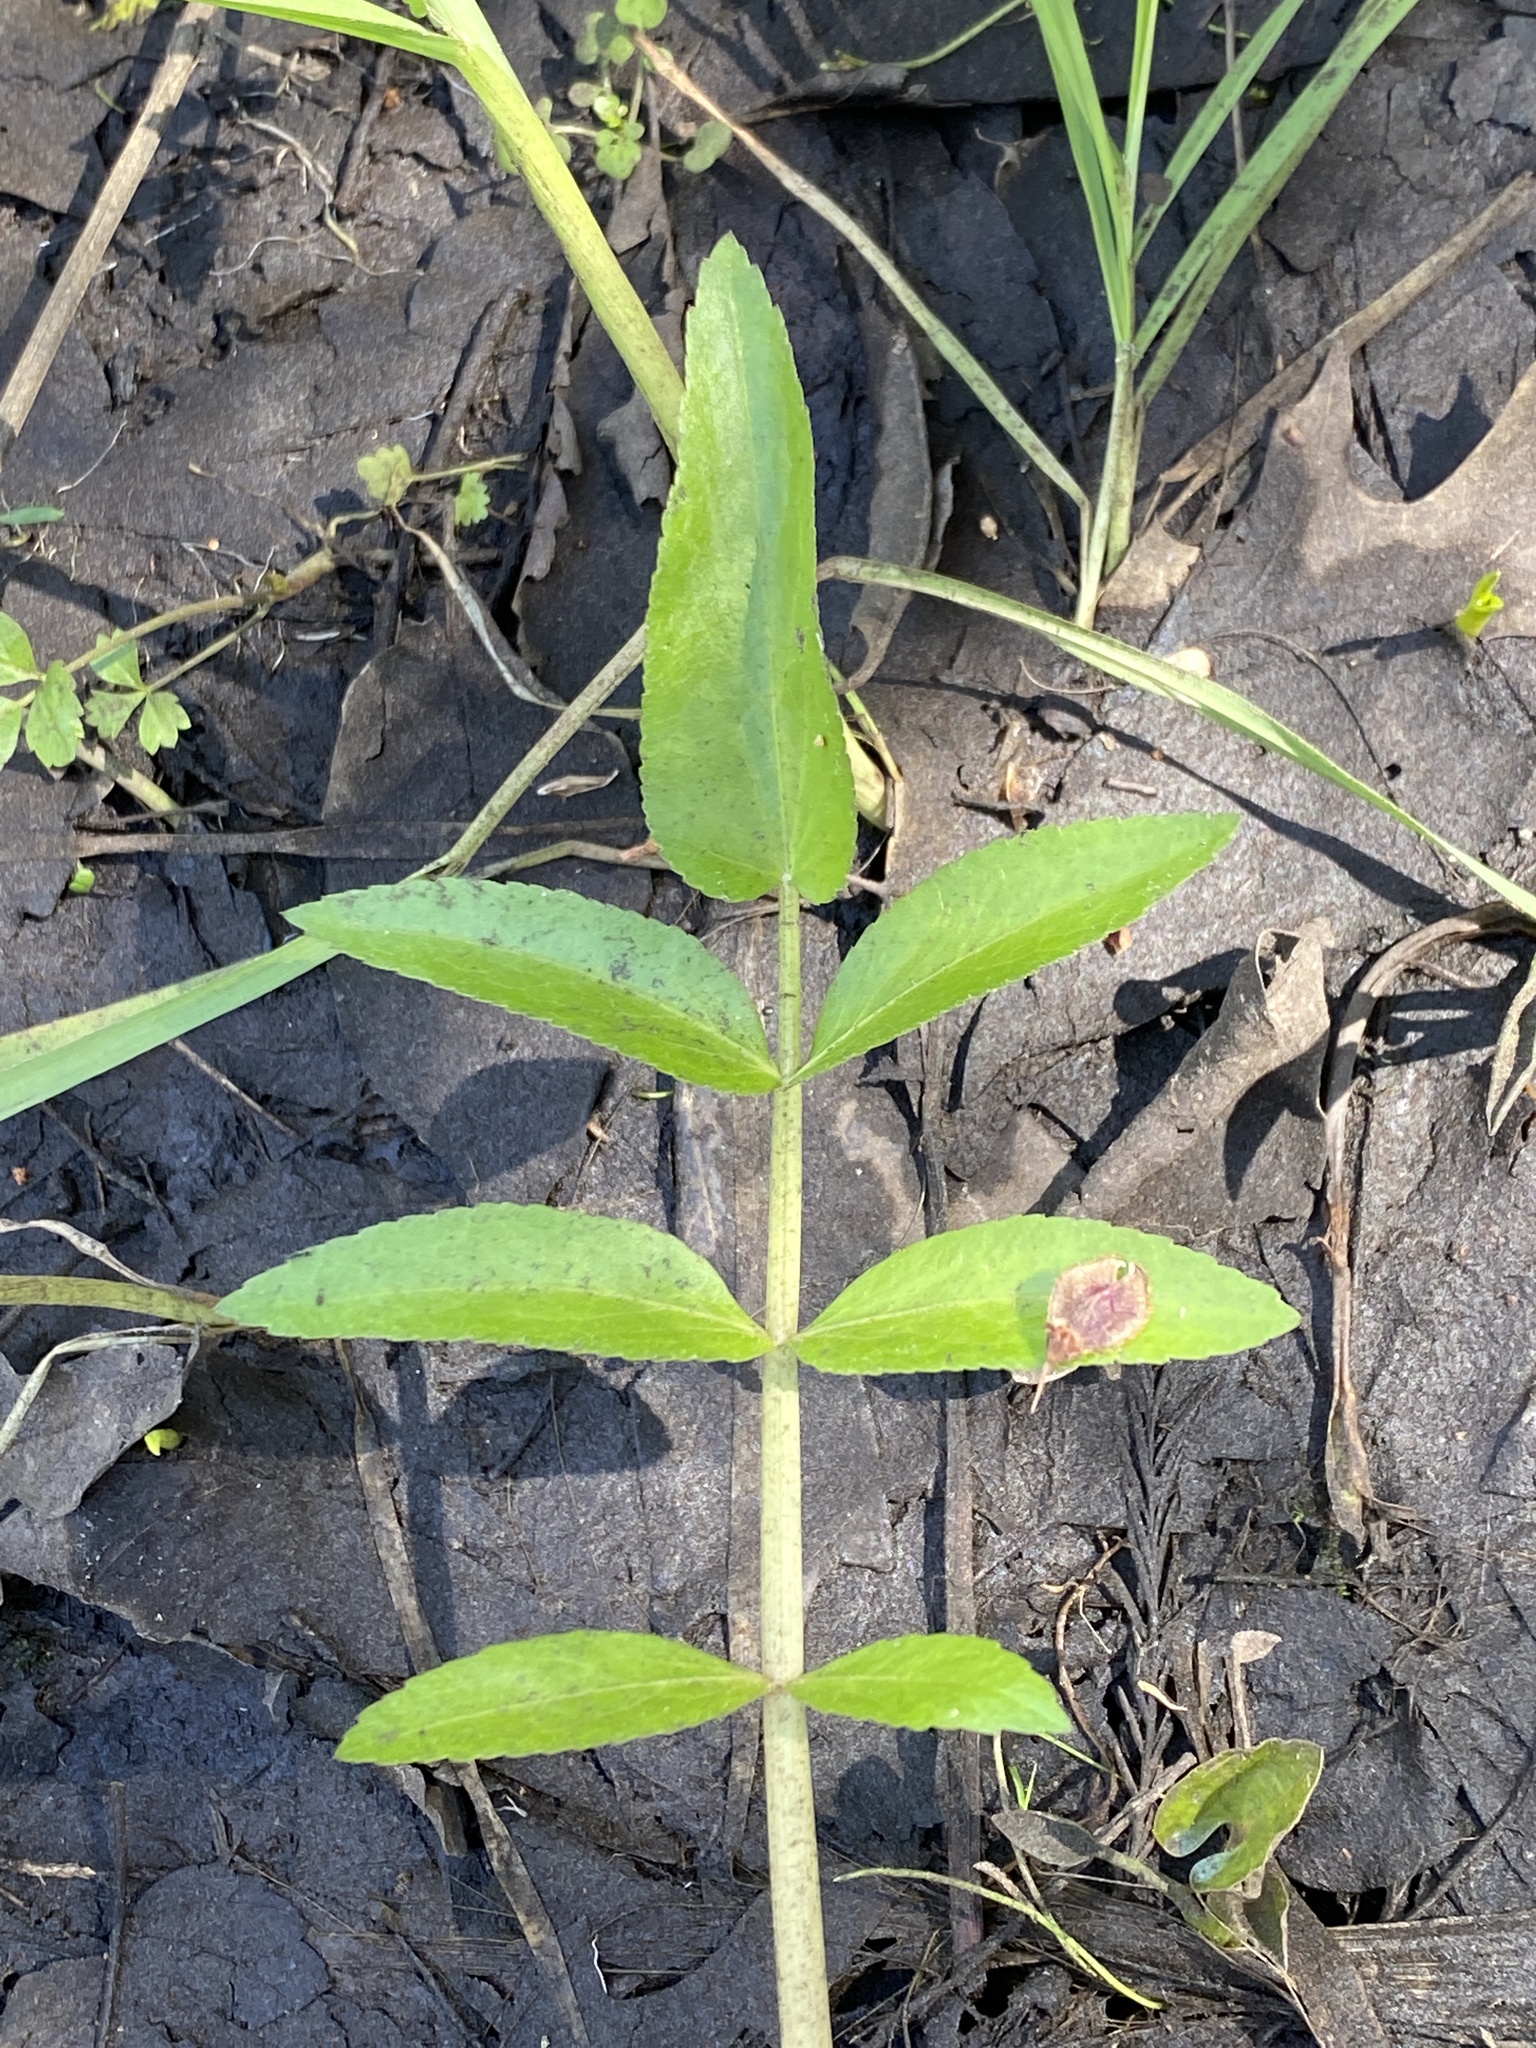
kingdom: Plantae
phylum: Tracheophyta
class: Magnoliopsida
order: Apiales
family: Apiaceae
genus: Sium
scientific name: Sium suave
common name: Hemlock water-parsnip
